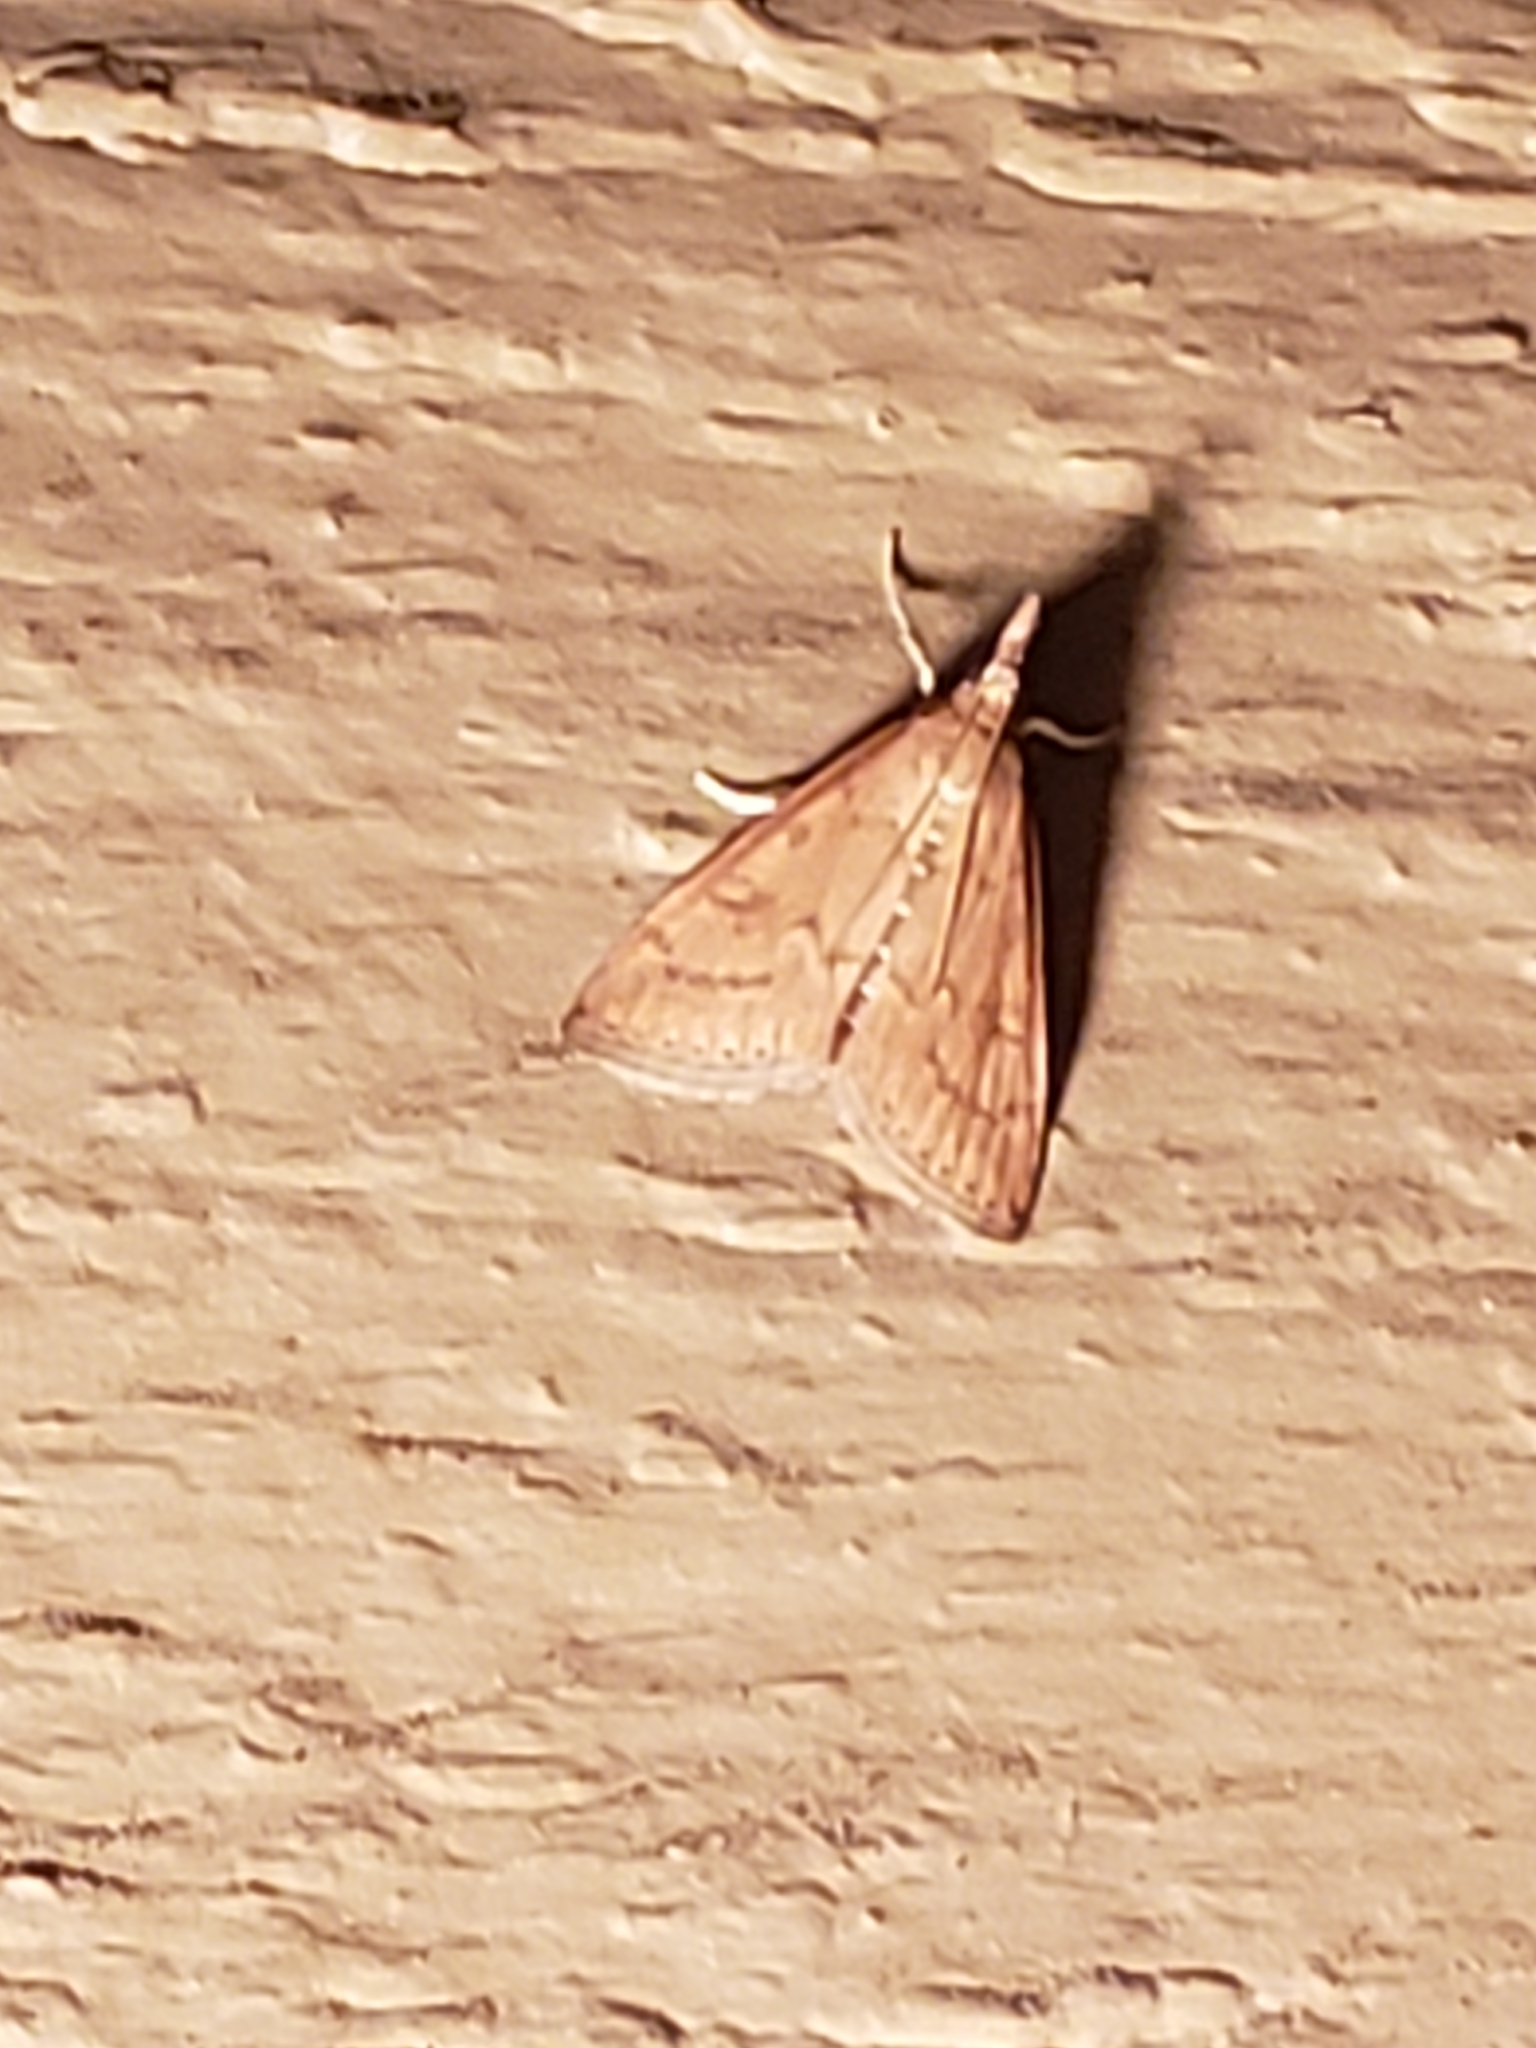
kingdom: Animalia
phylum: Arthropoda
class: Insecta
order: Lepidoptera
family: Crambidae
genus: Udea
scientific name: Udea rubigalis
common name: Celery leaftier moth
